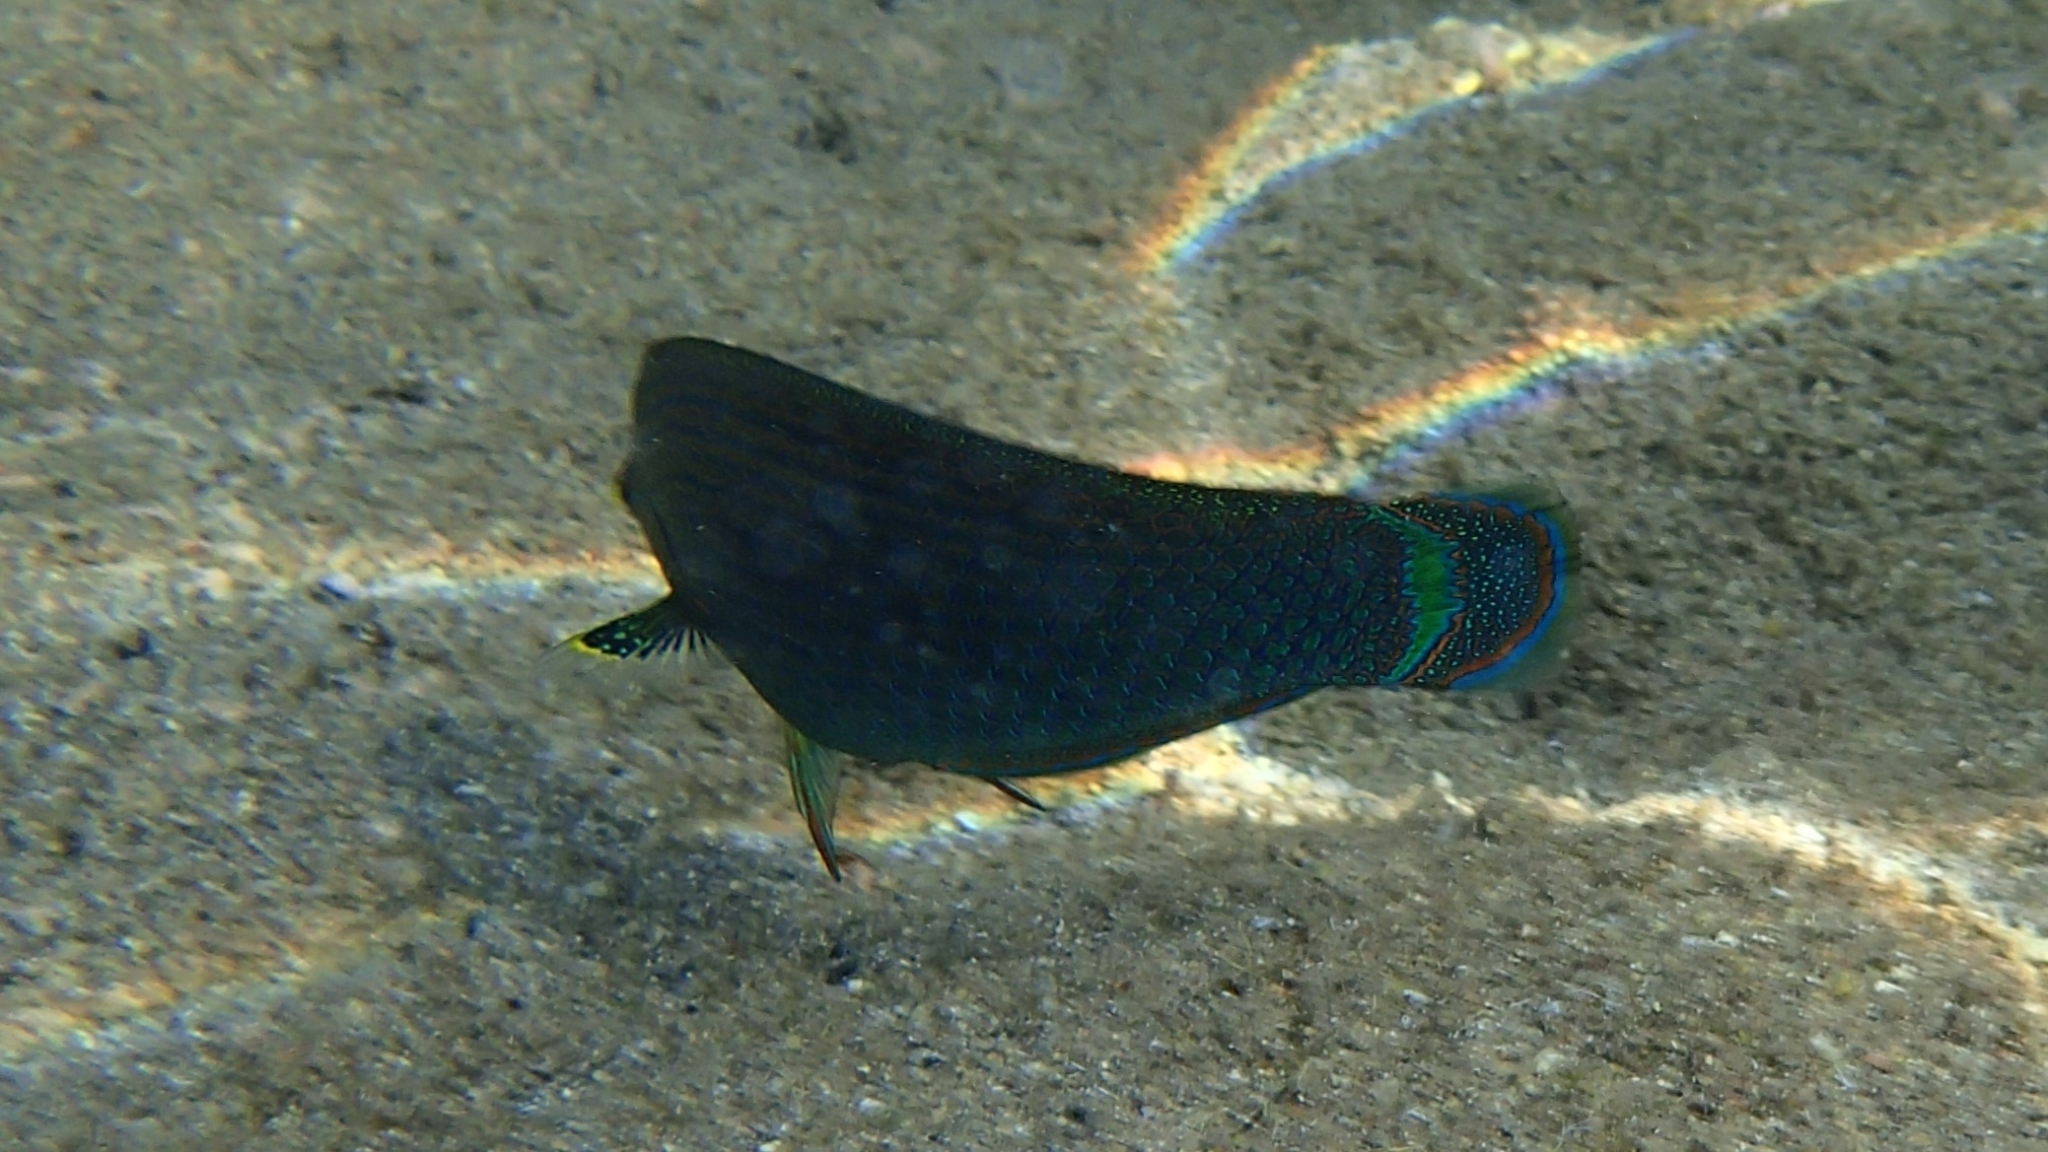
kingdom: Animalia
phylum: Chordata
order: Perciformes
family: Labridae
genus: Halichoeres
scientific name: Halichoeres marginatus
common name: Dusky wrasse
